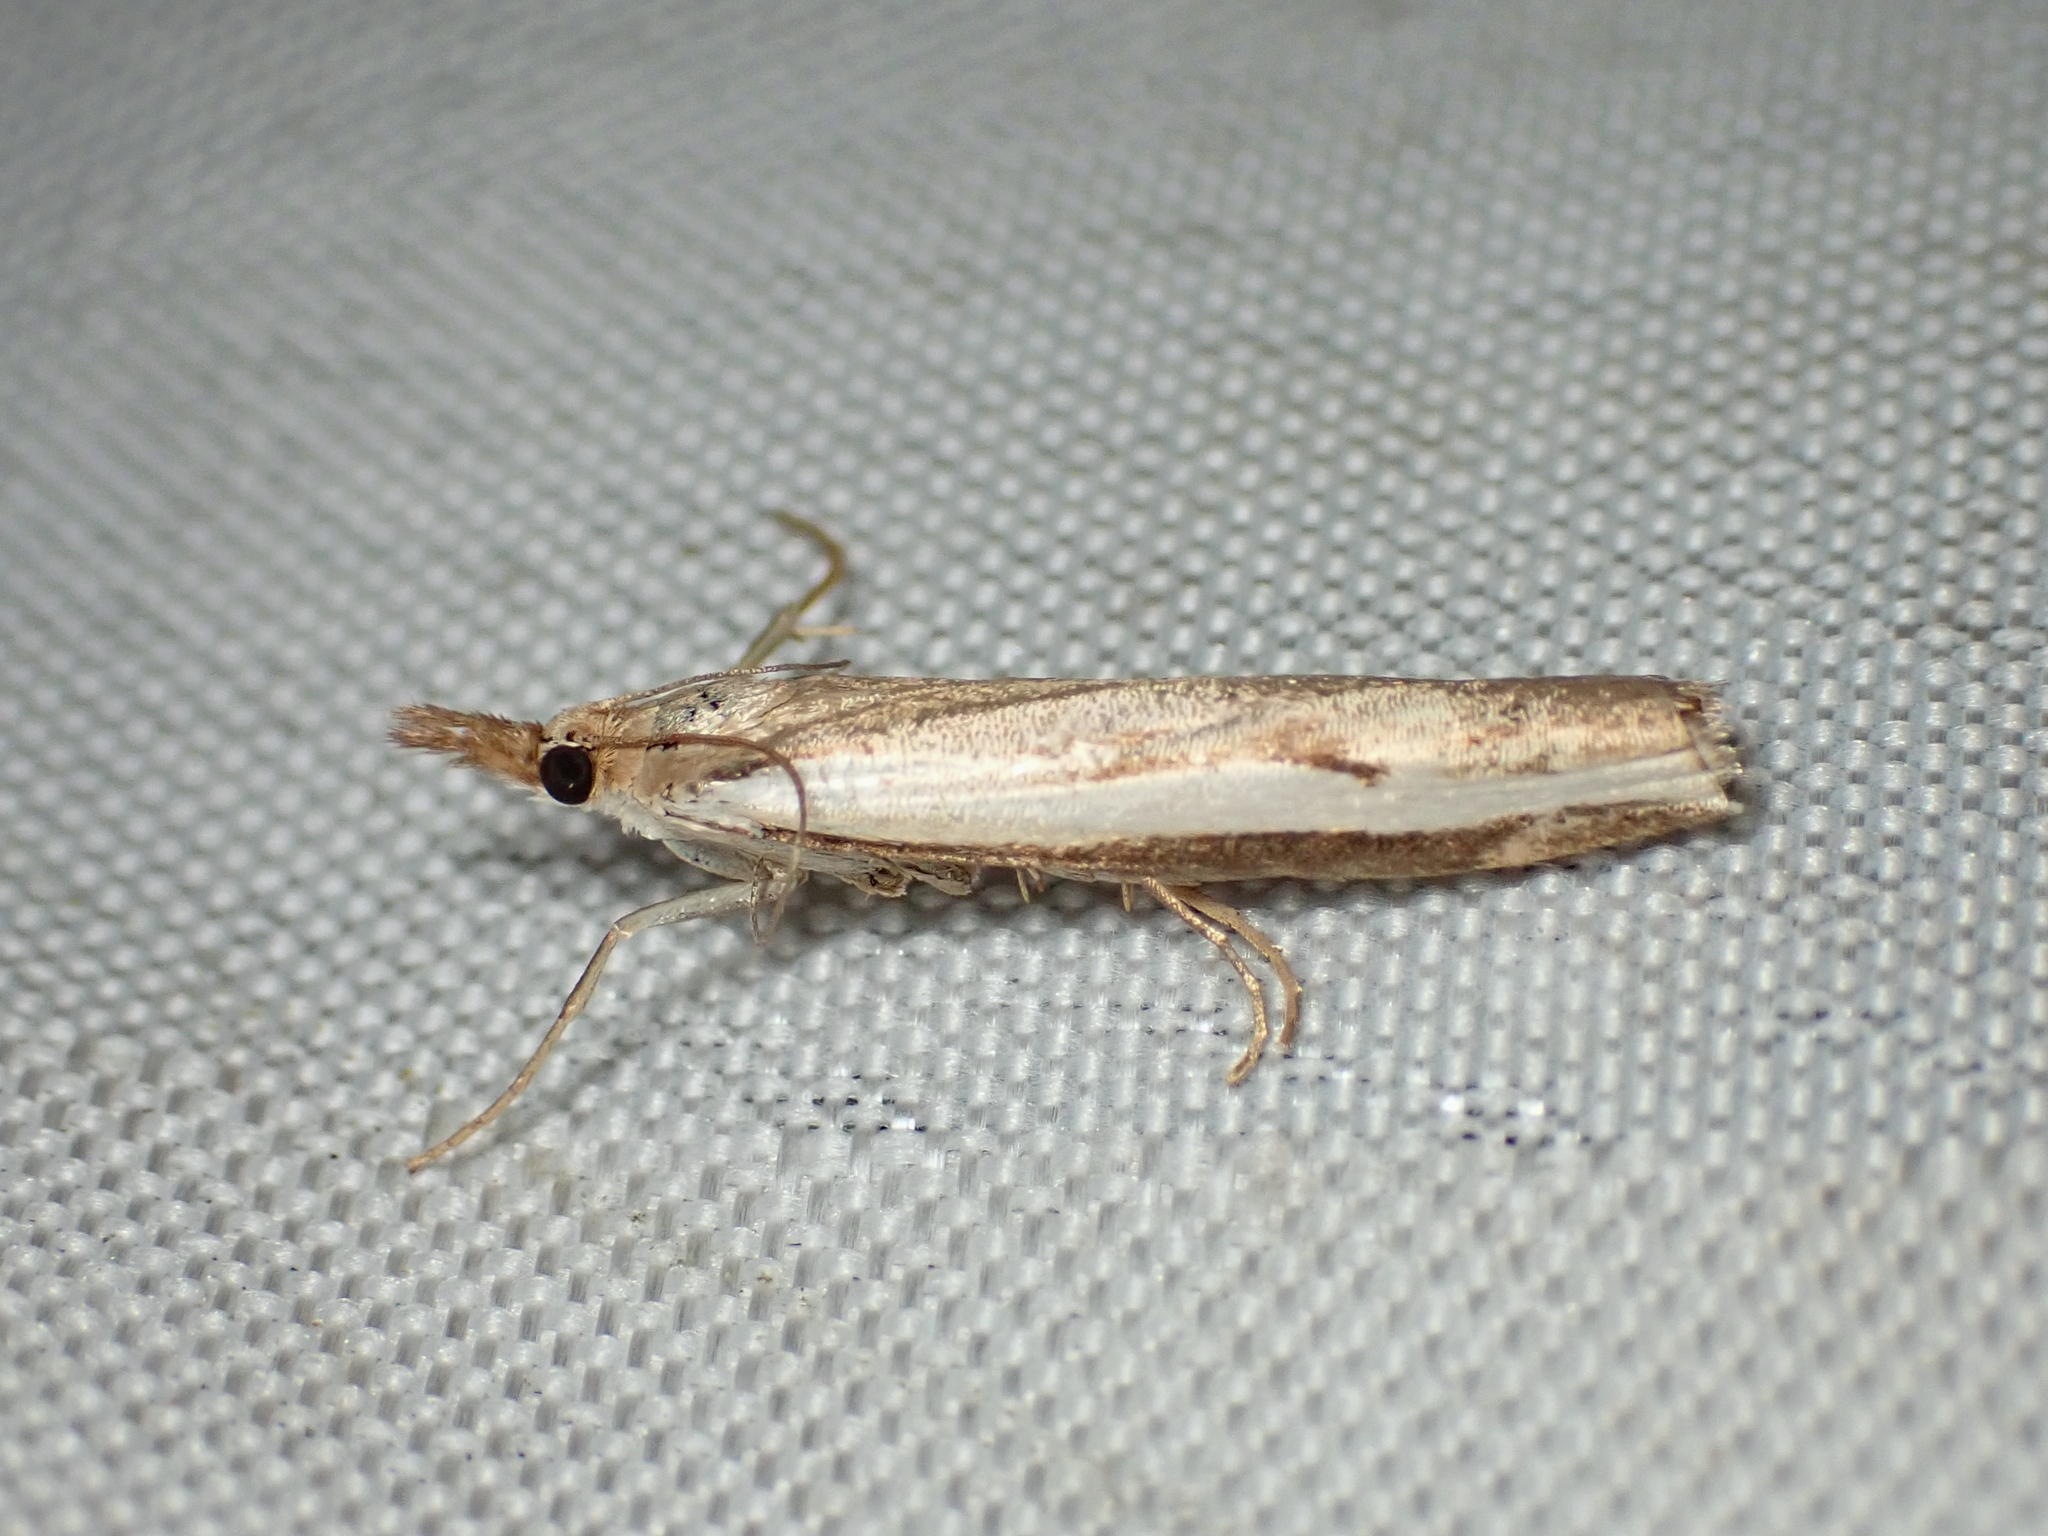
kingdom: Animalia
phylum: Arthropoda
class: Insecta
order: Lepidoptera
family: Crambidae
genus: Orocrambus
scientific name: Orocrambus flexuosellus
